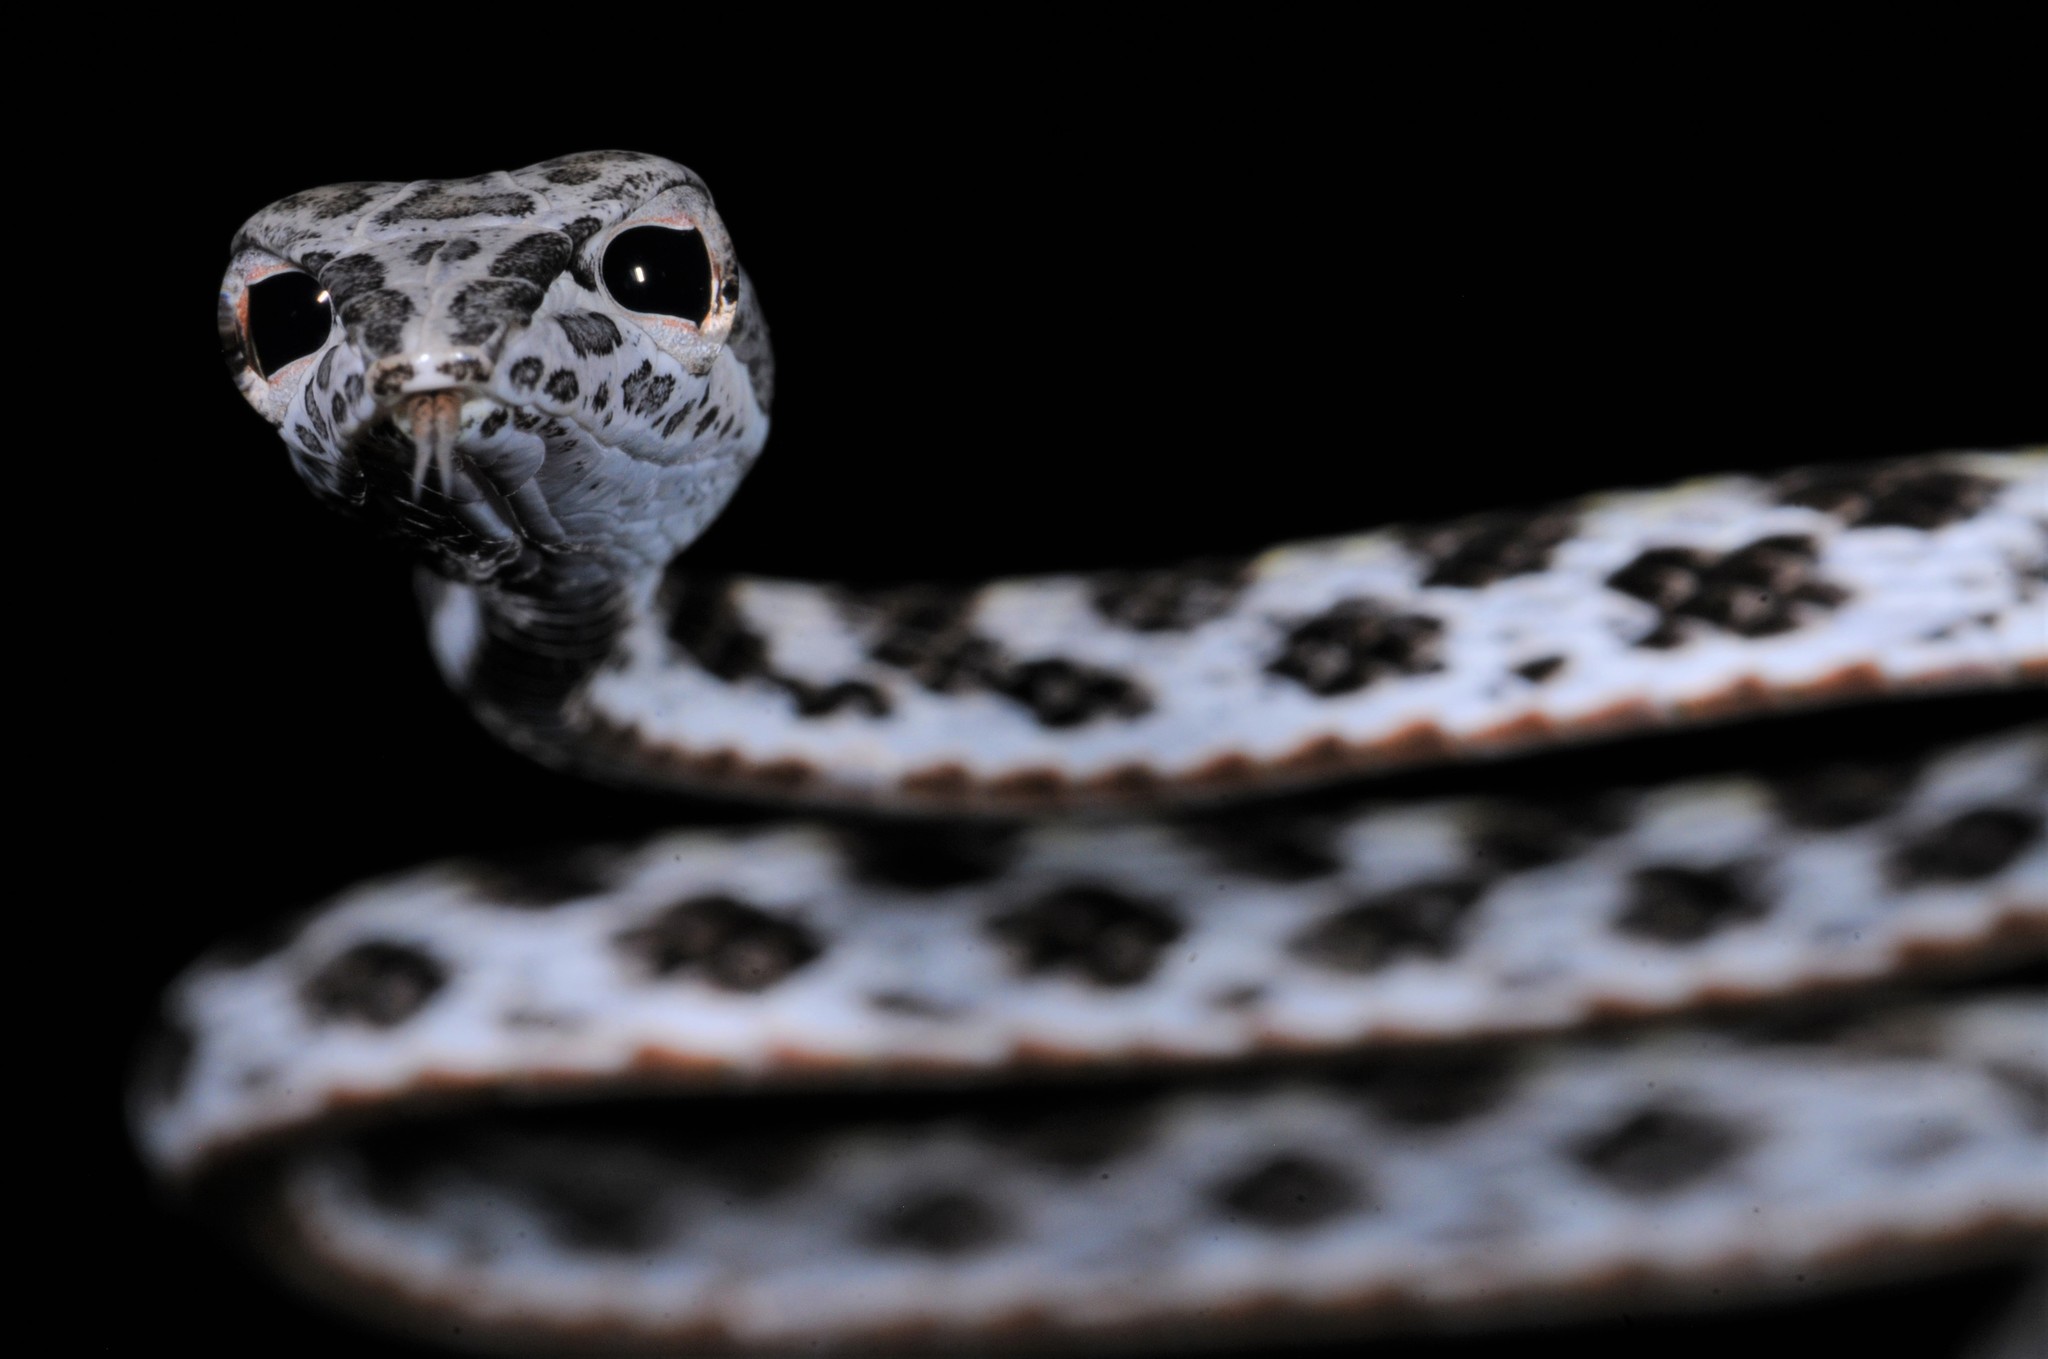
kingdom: Animalia
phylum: Chordata
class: Squamata
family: Colubridae
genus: Ahaetulla
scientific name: Ahaetulla fasciolata
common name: Speckled-headed whip snake
